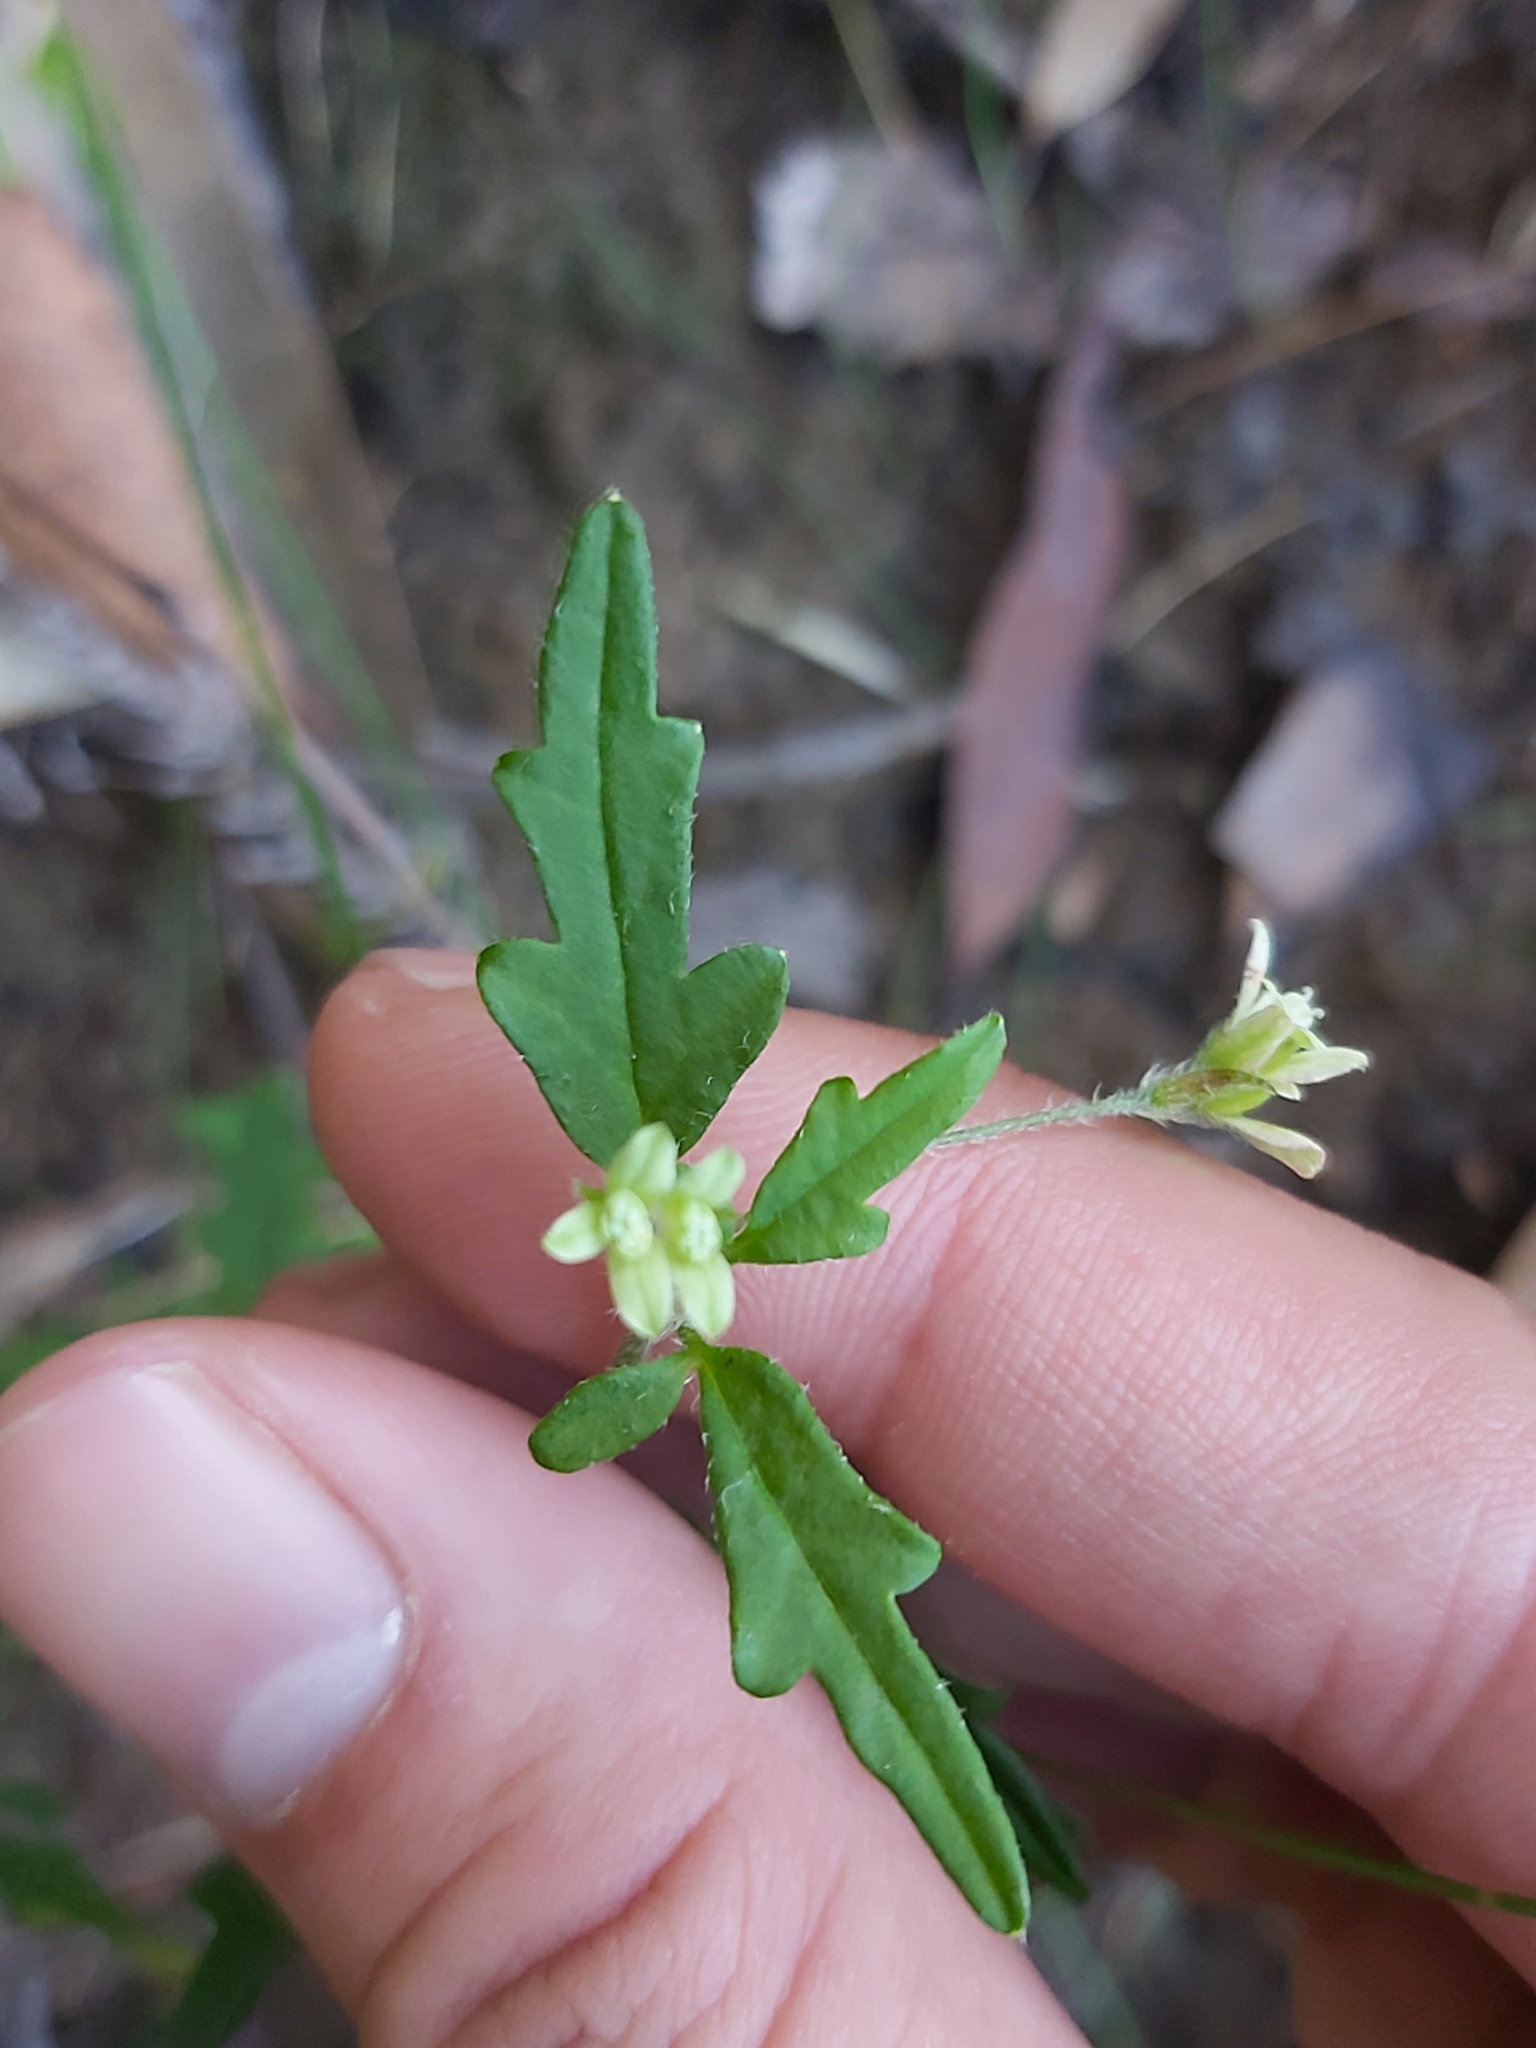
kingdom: Plantae
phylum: Tracheophyta
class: Magnoliopsida
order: Apiales
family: Apiaceae
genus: Xanthosia
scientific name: Xanthosia pilosa
